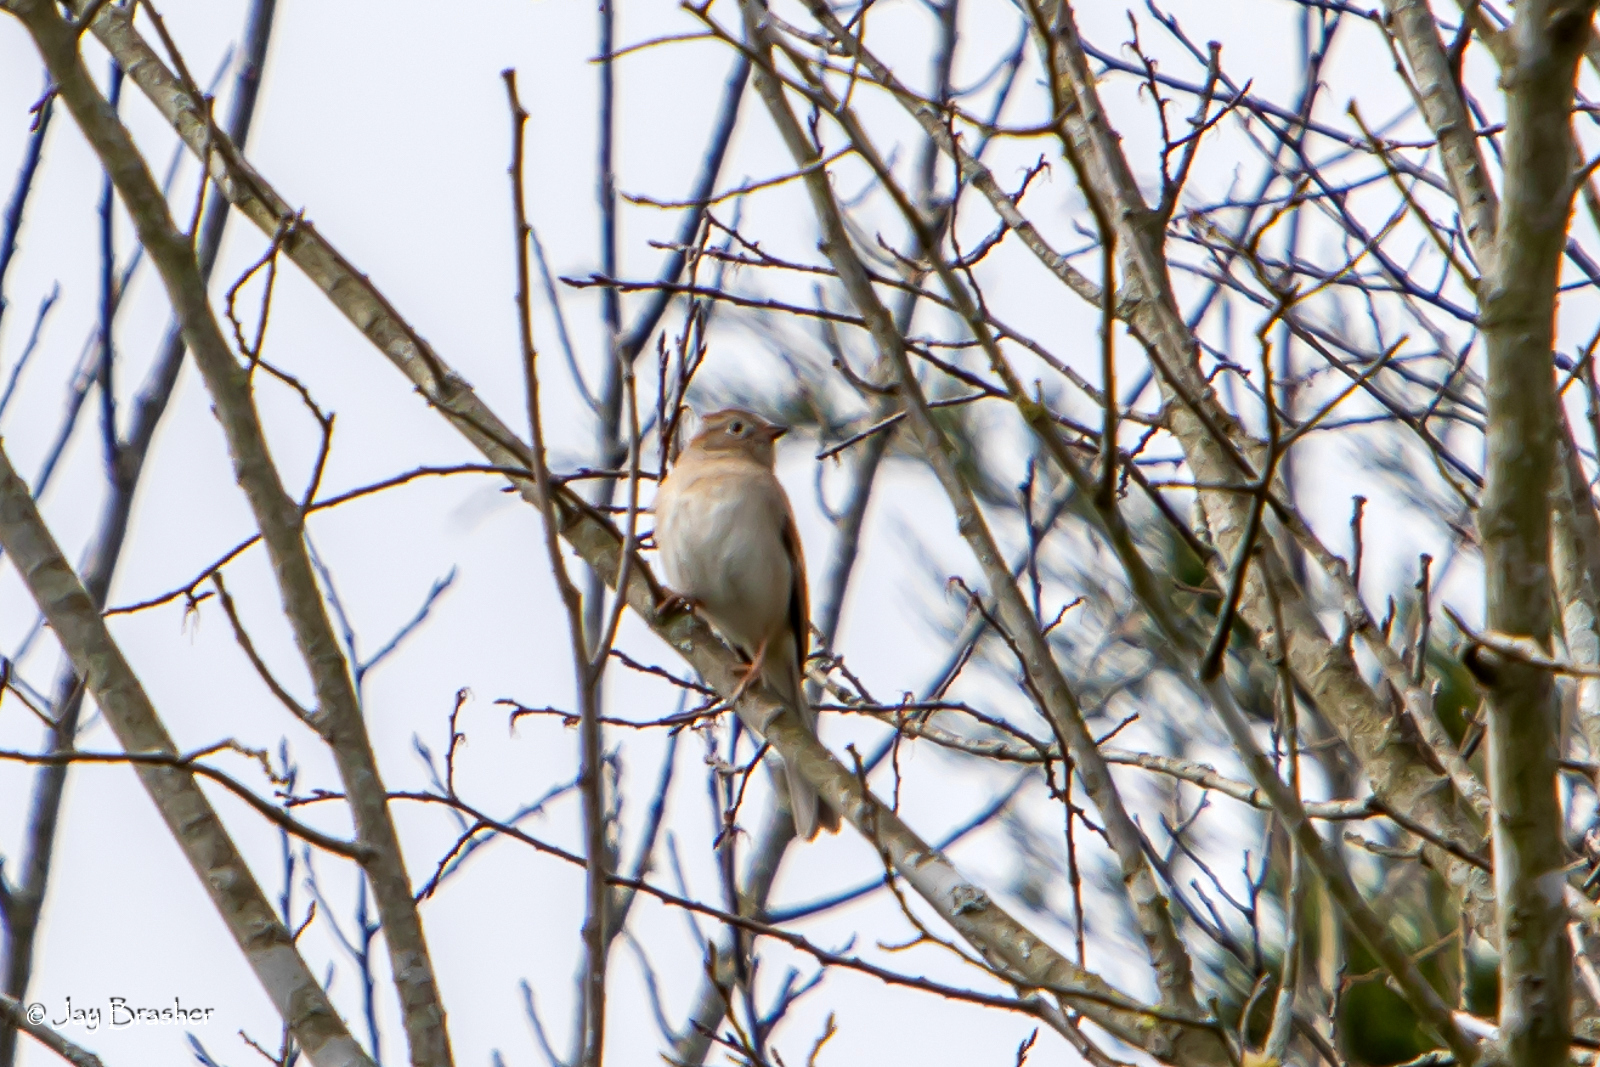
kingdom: Animalia
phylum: Chordata
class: Aves
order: Passeriformes
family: Passerellidae
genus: Spizella
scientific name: Spizella pusilla
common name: Field sparrow
